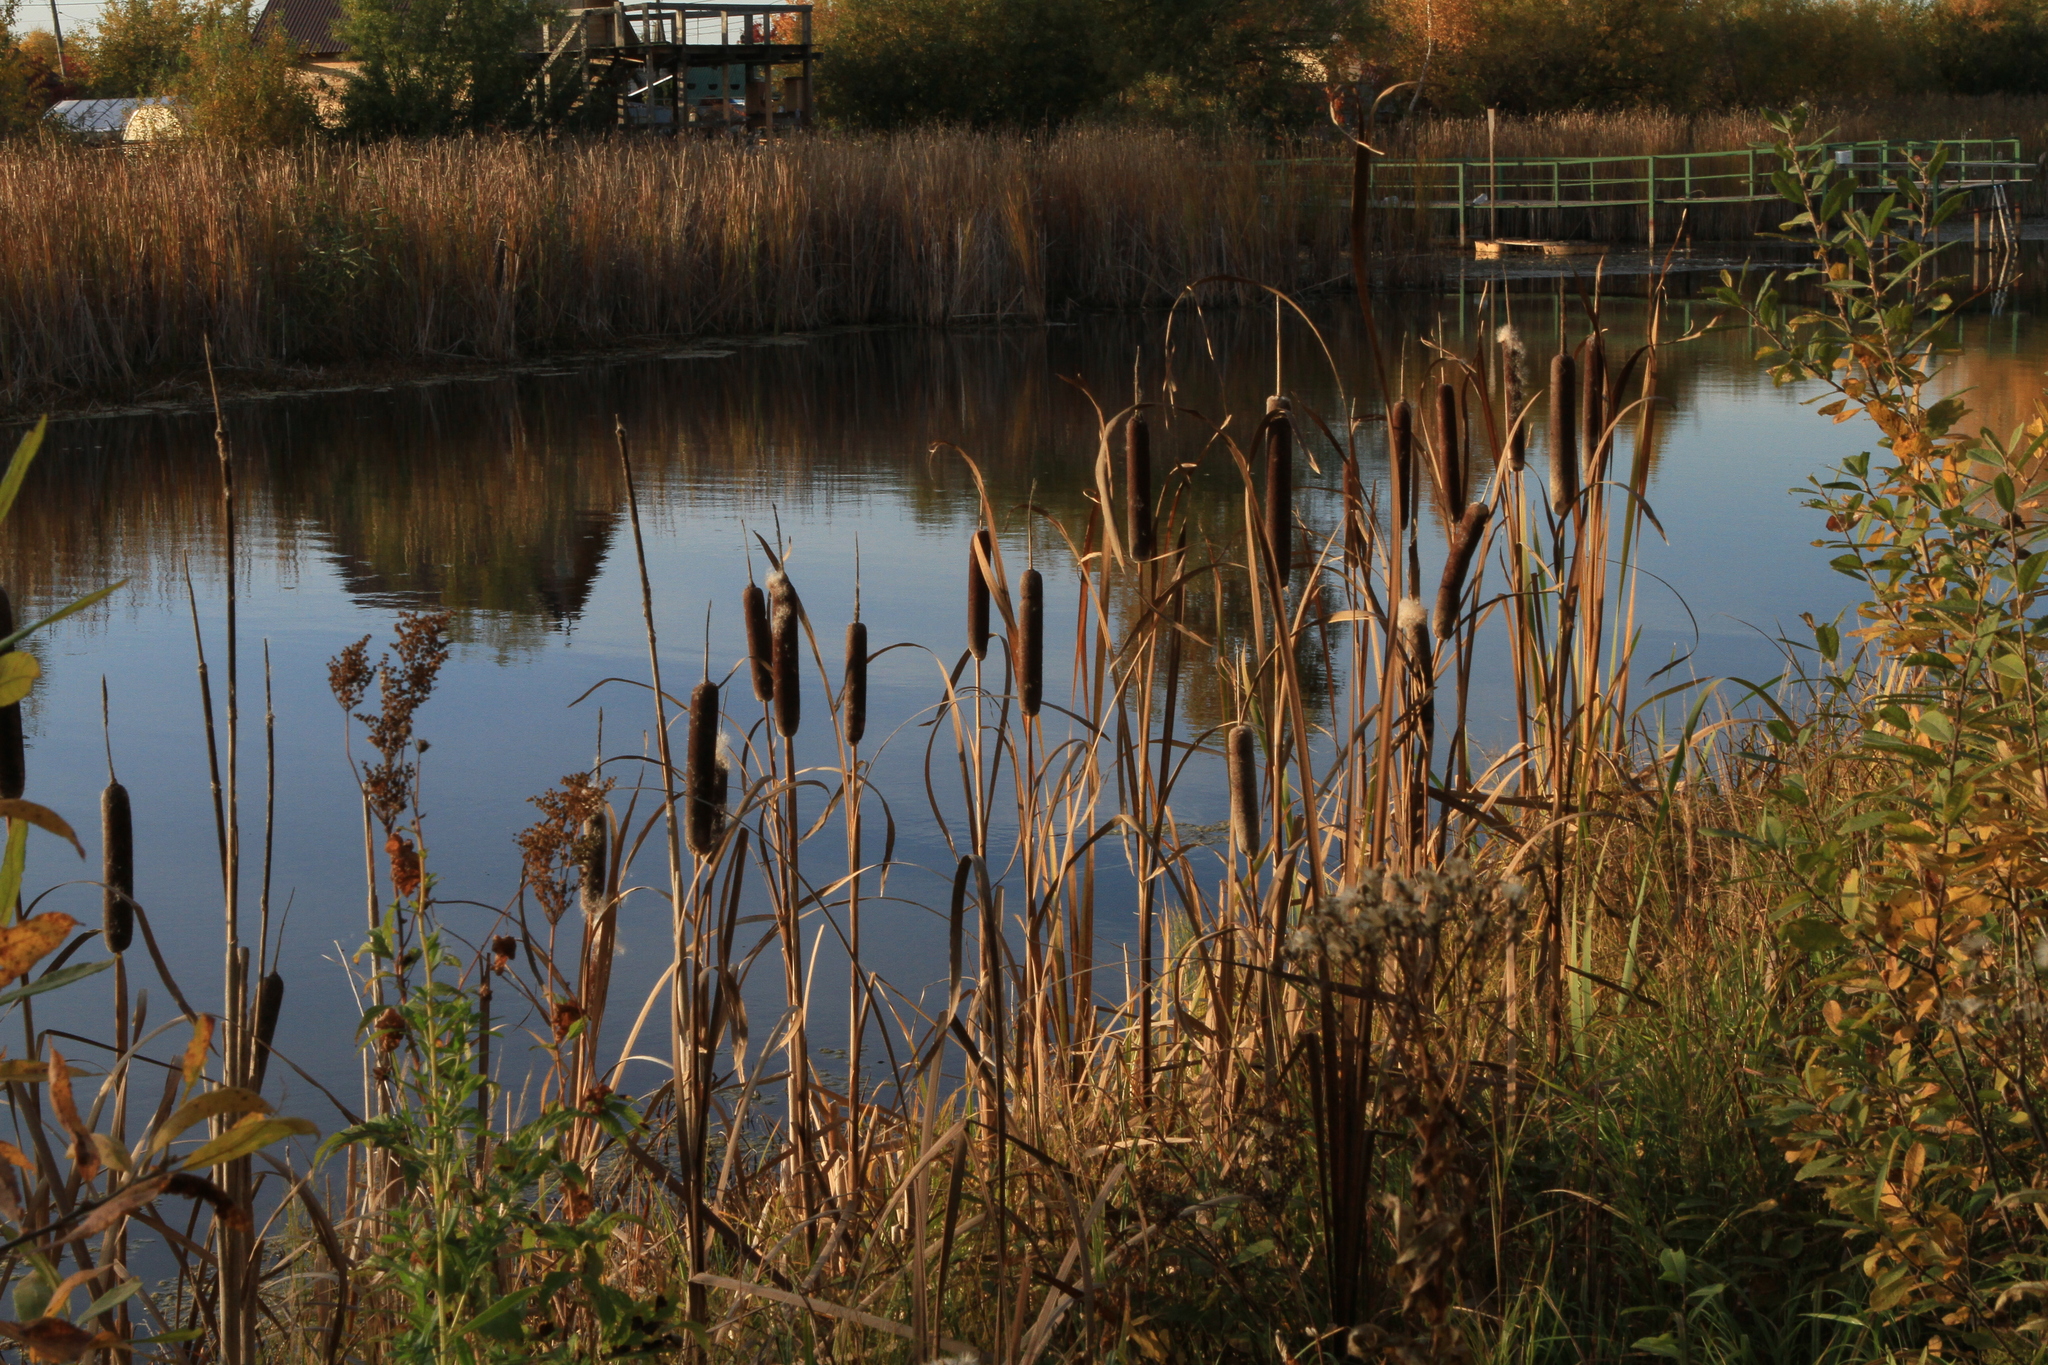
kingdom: Plantae
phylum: Tracheophyta
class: Liliopsida
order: Poales
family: Typhaceae
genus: Typha
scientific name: Typha latifolia
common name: Broadleaf cattail
